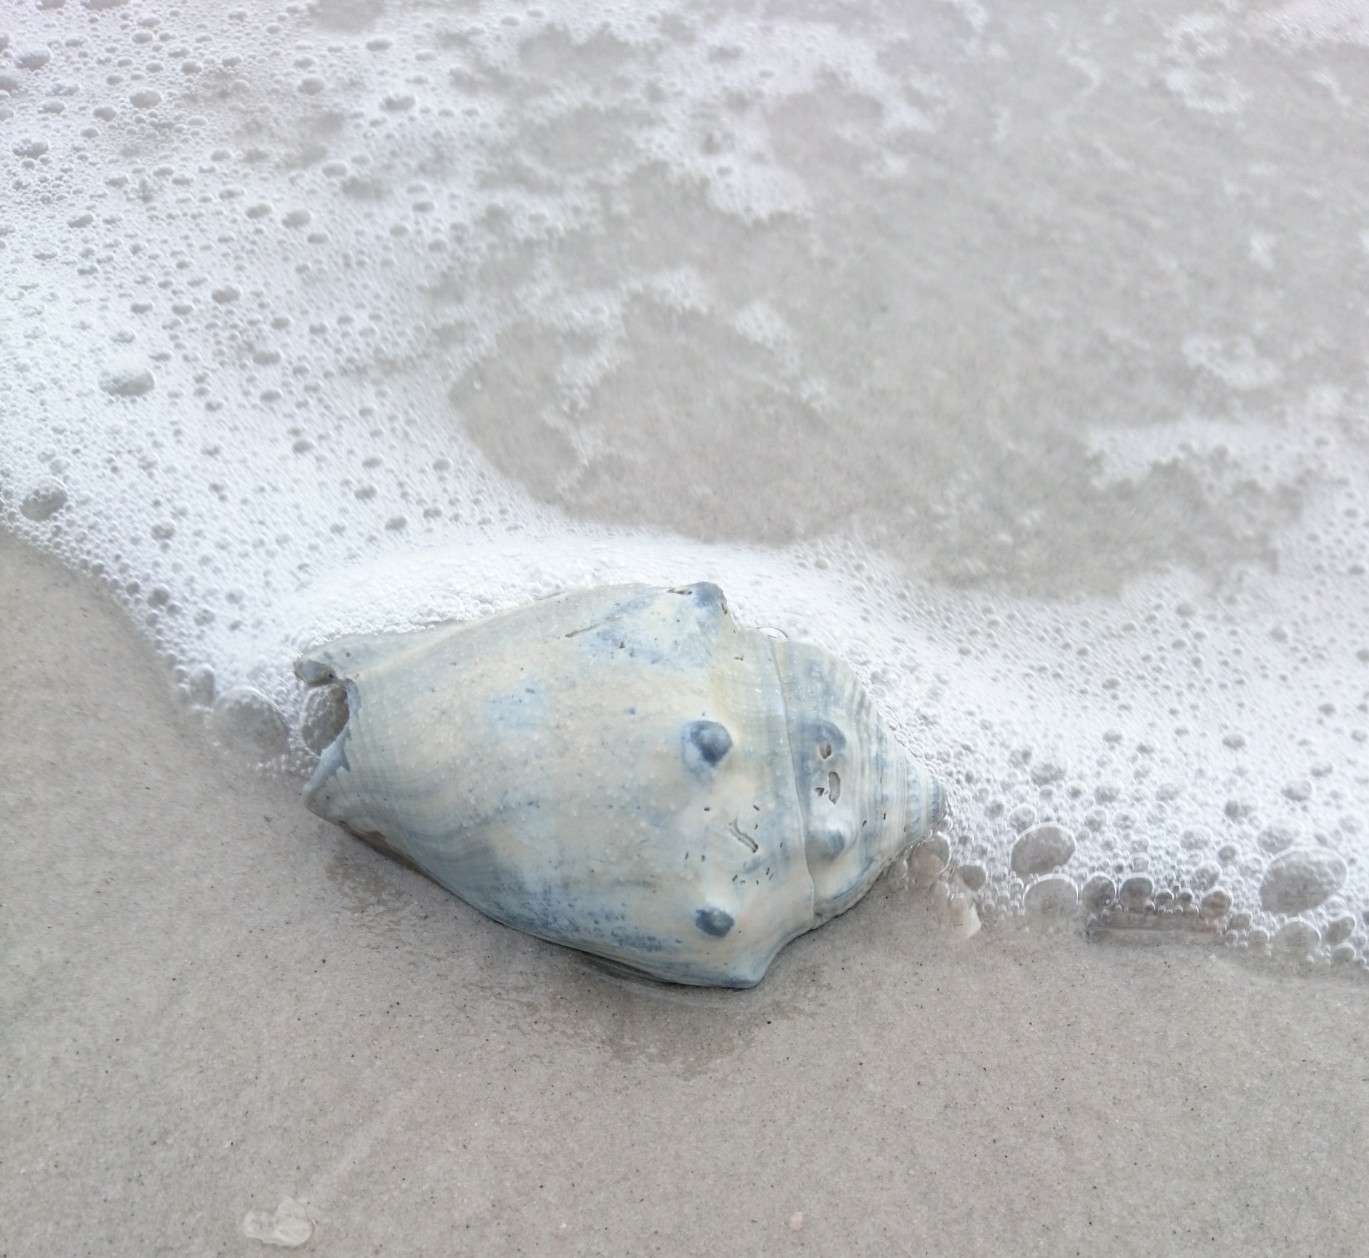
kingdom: Animalia
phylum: Mollusca
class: Gastropoda
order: Littorinimorpha
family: Strombidae
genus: Strombus
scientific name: Strombus alatus
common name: Florida fighting conch
